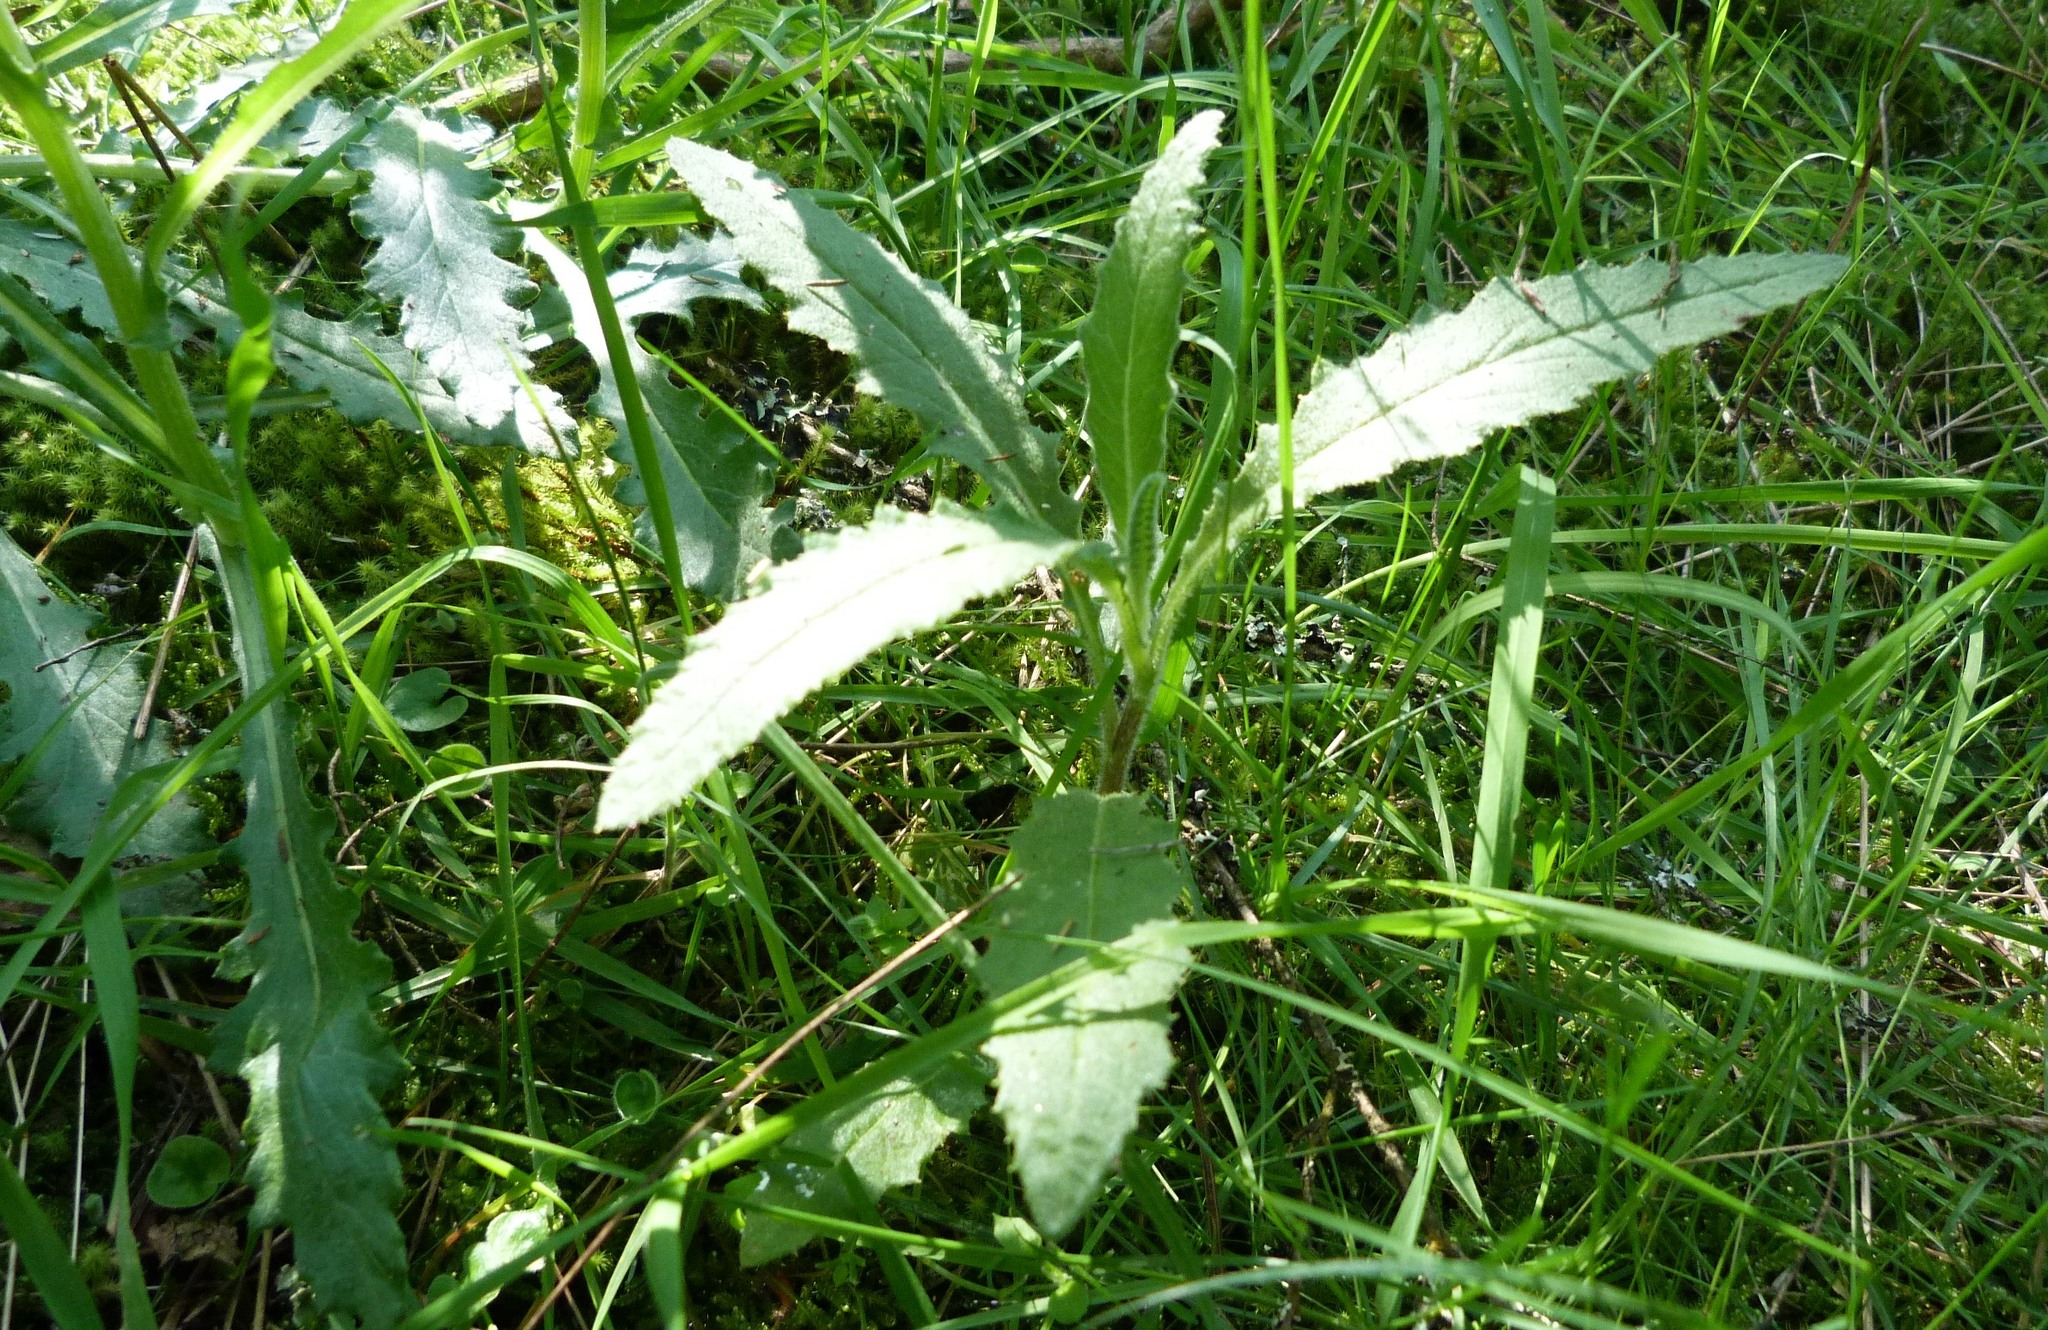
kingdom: Plantae
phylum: Tracheophyta
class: Magnoliopsida
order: Asterales
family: Asteraceae
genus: Senecio
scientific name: Senecio minimus
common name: Toothed fireweed
